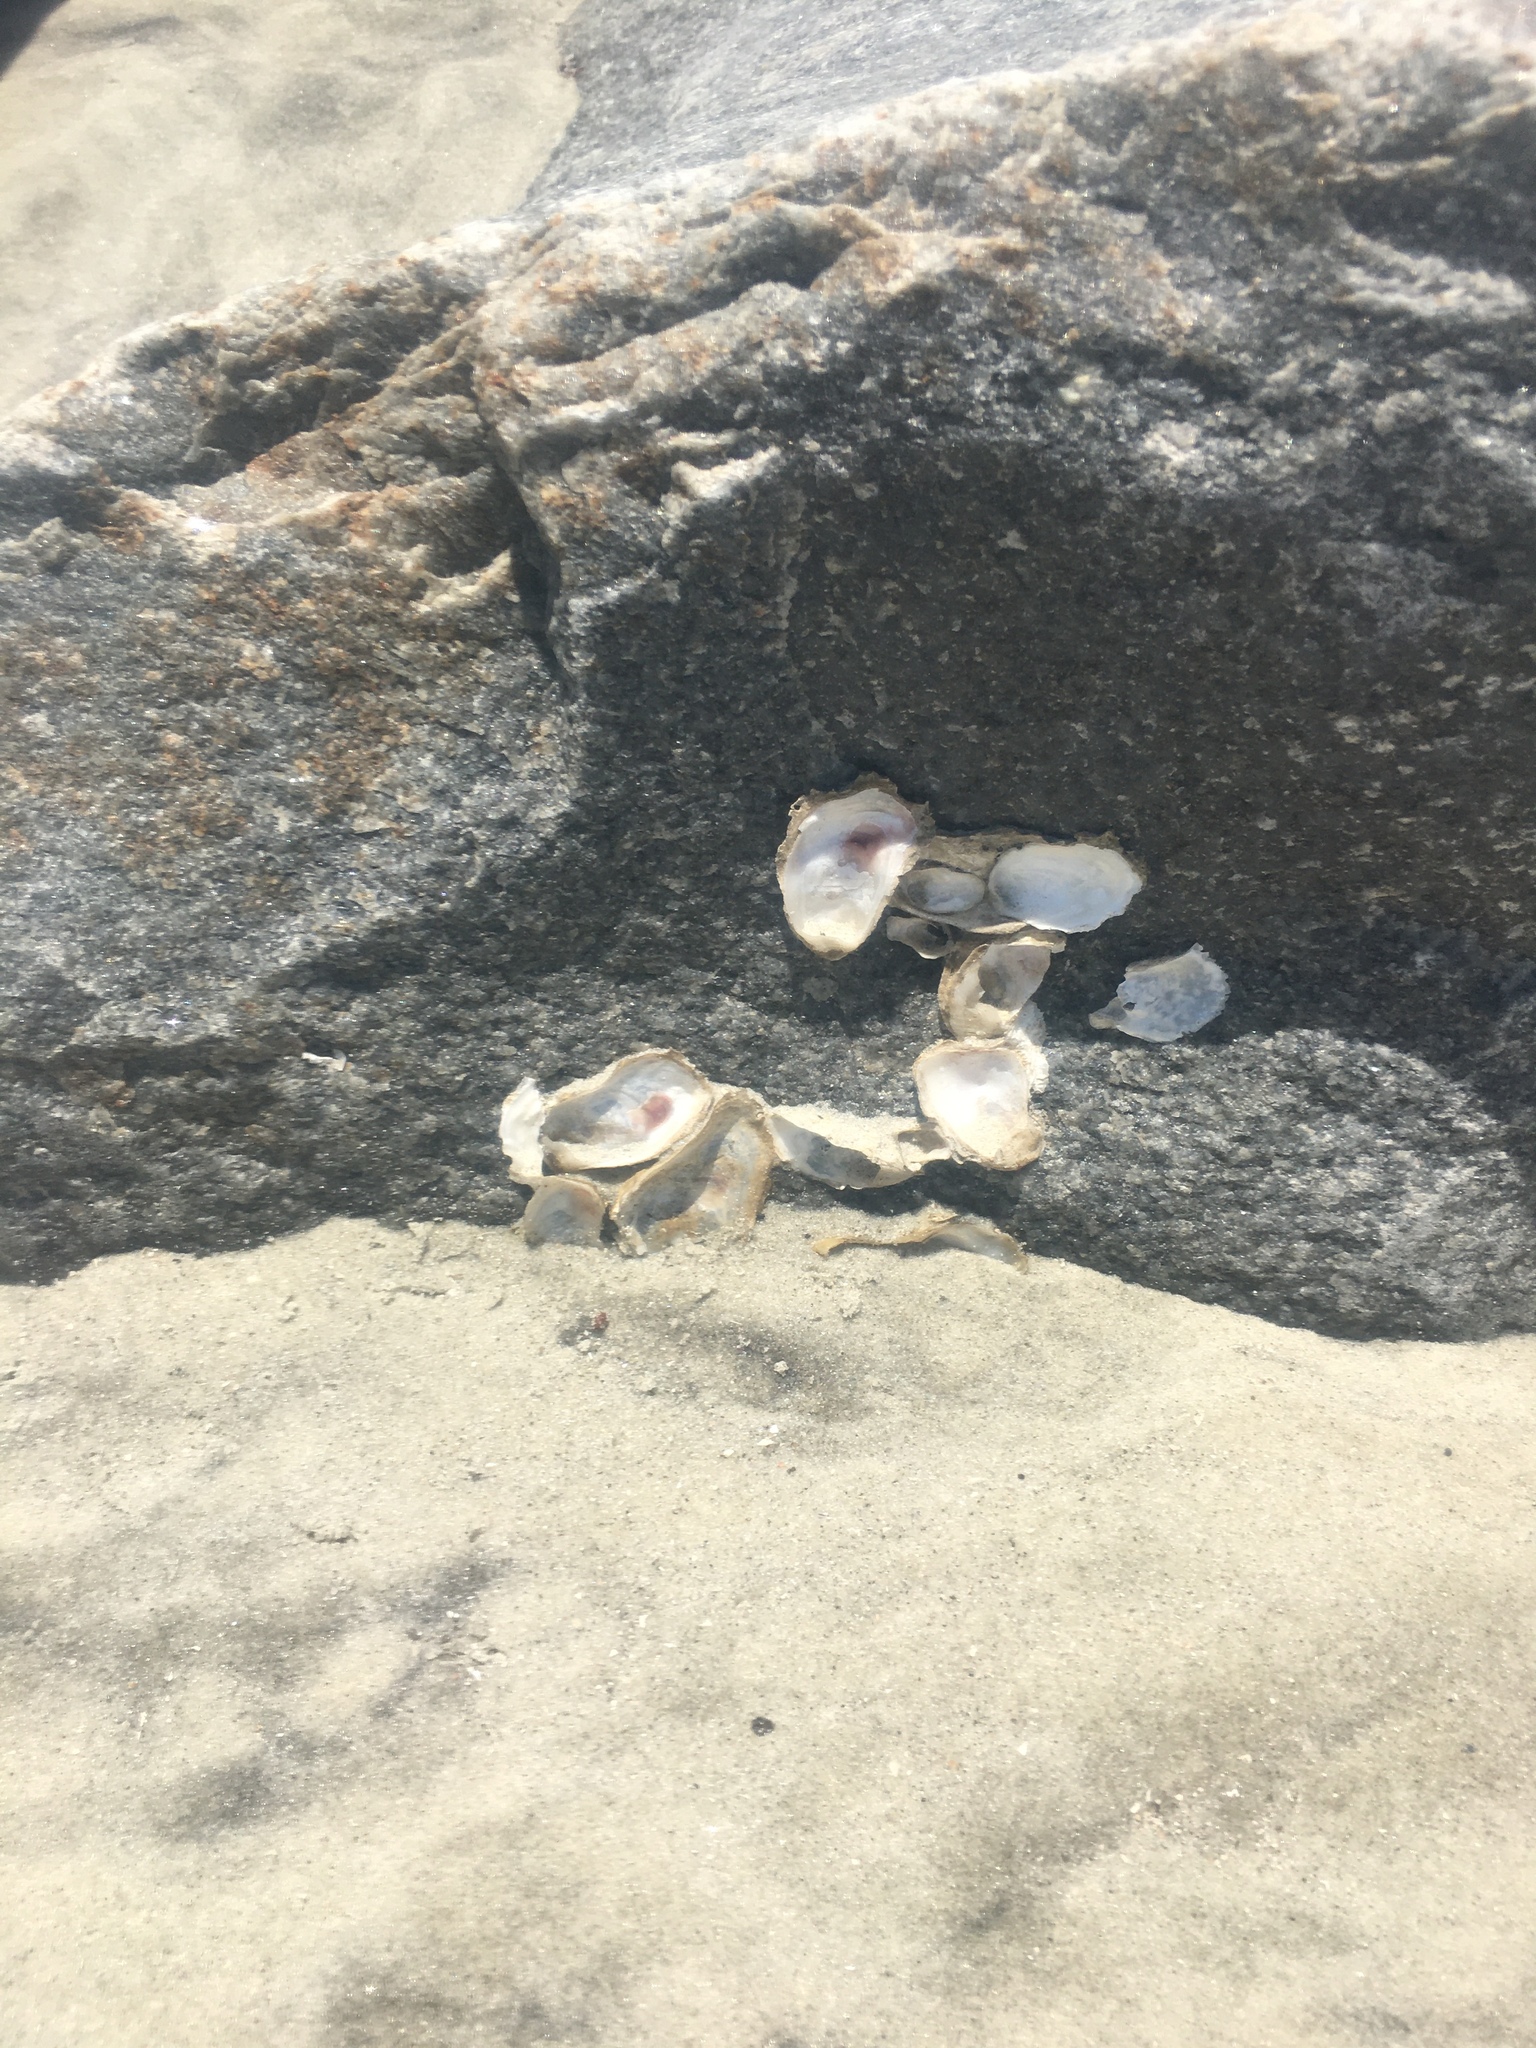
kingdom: Animalia
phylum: Mollusca
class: Bivalvia
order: Ostreida
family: Ostreidae
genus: Crassostrea
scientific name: Crassostrea virginica
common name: American oyster
